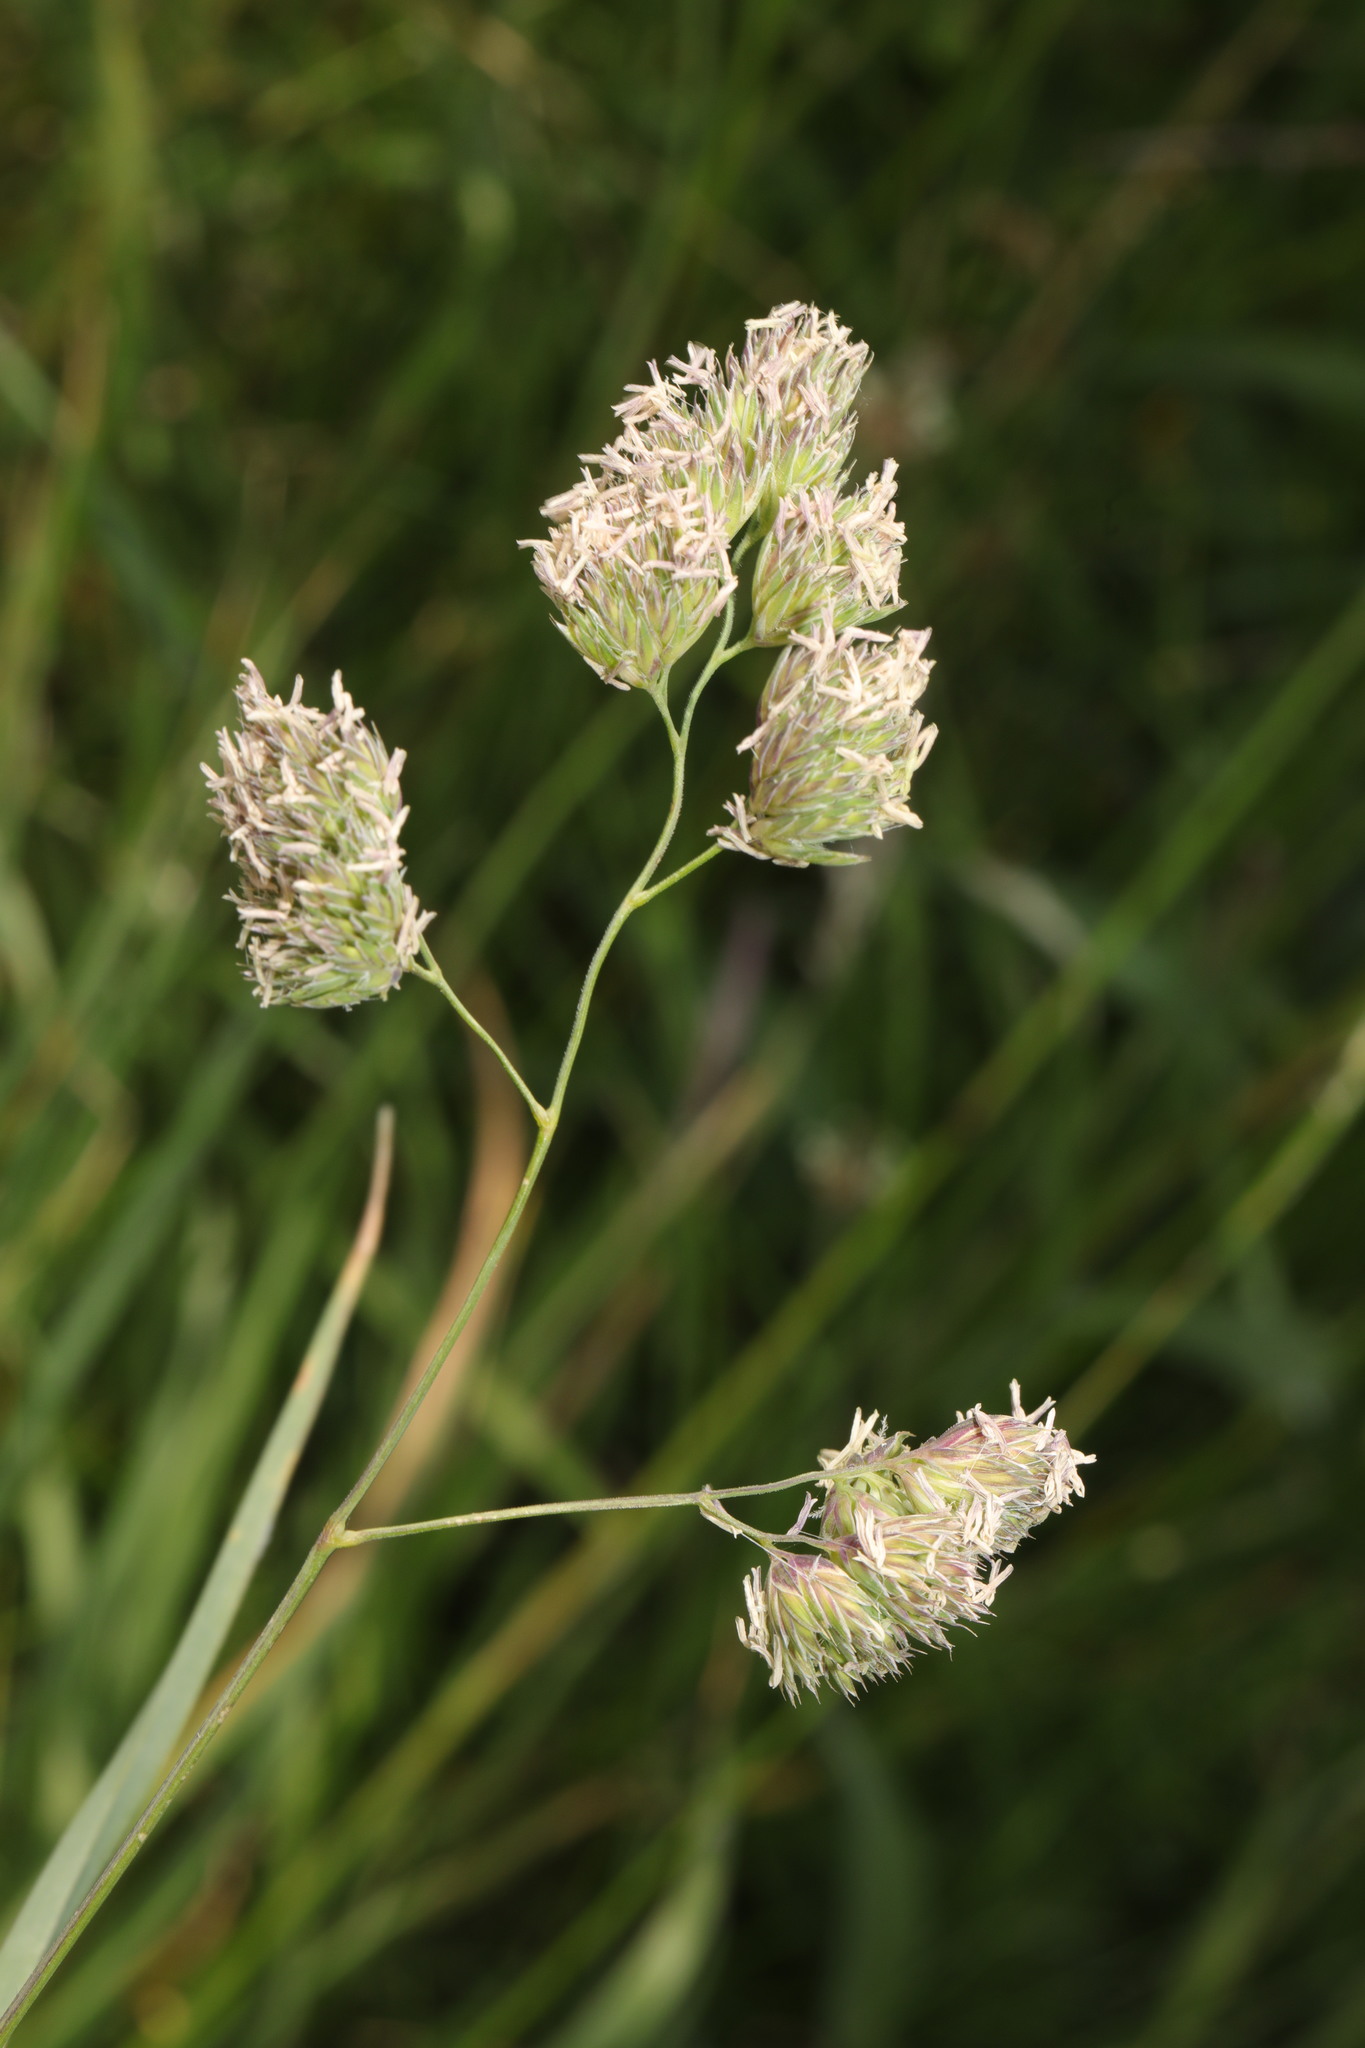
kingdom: Plantae
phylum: Tracheophyta
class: Liliopsida
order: Poales
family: Poaceae
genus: Dactylis
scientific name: Dactylis glomerata
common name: Orchardgrass
